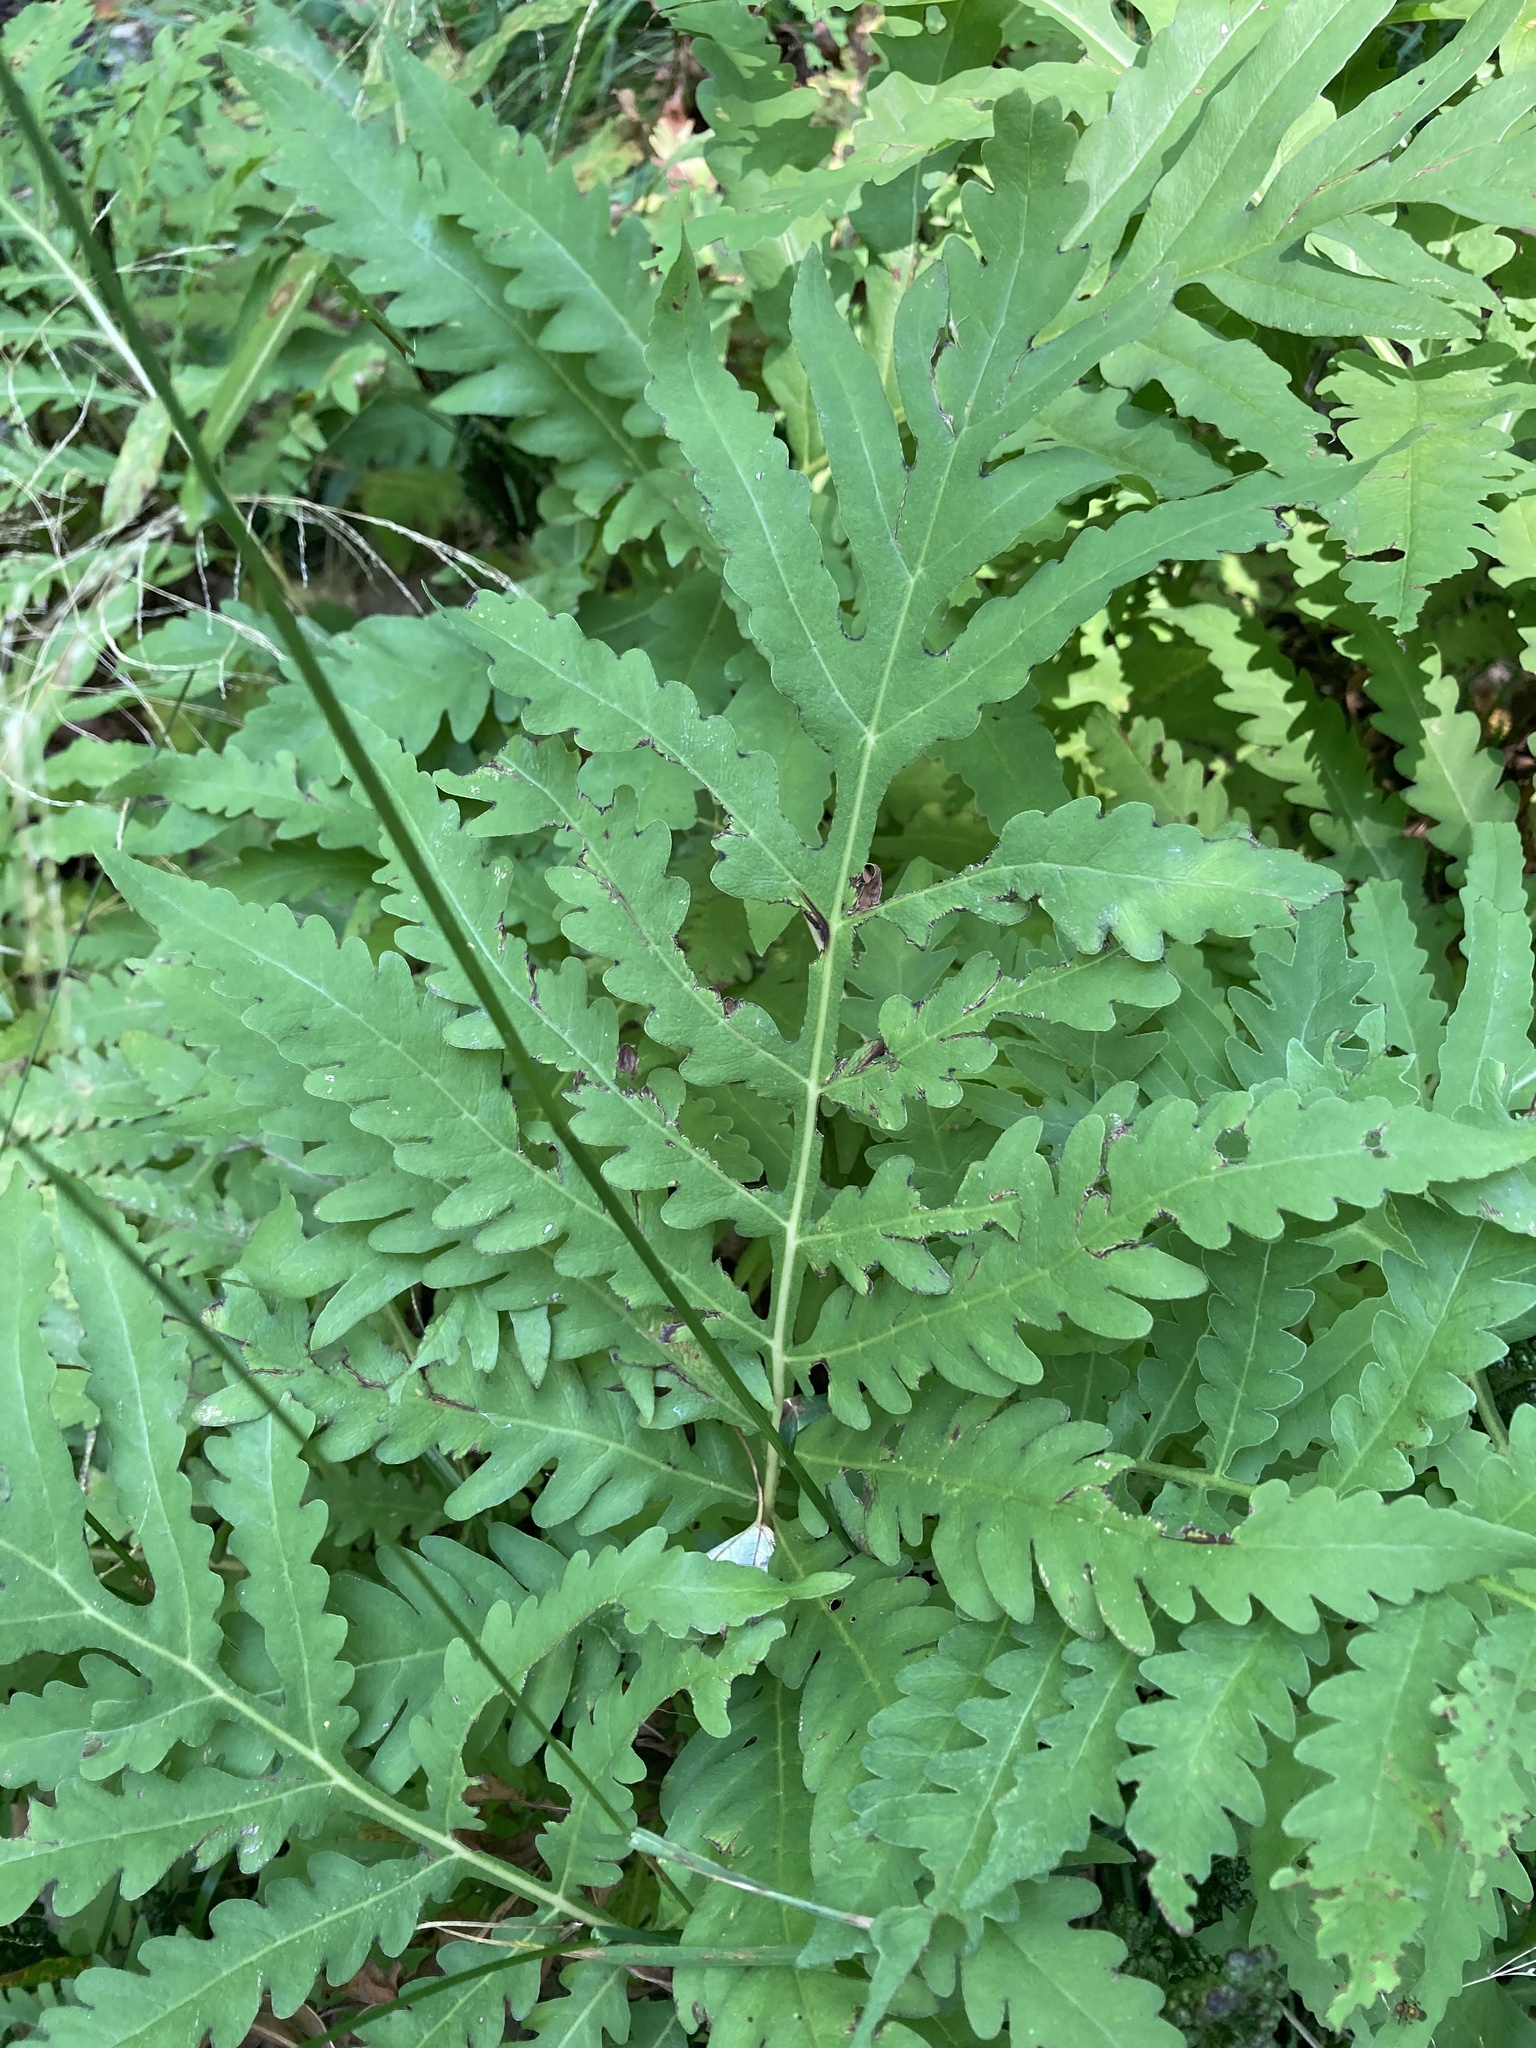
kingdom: Plantae
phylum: Tracheophyta
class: Polypodiopsida
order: Polypodiales
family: Onocleaceae
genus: Onoclea
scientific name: Onoclea sensibilis
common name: Sensitive fern
